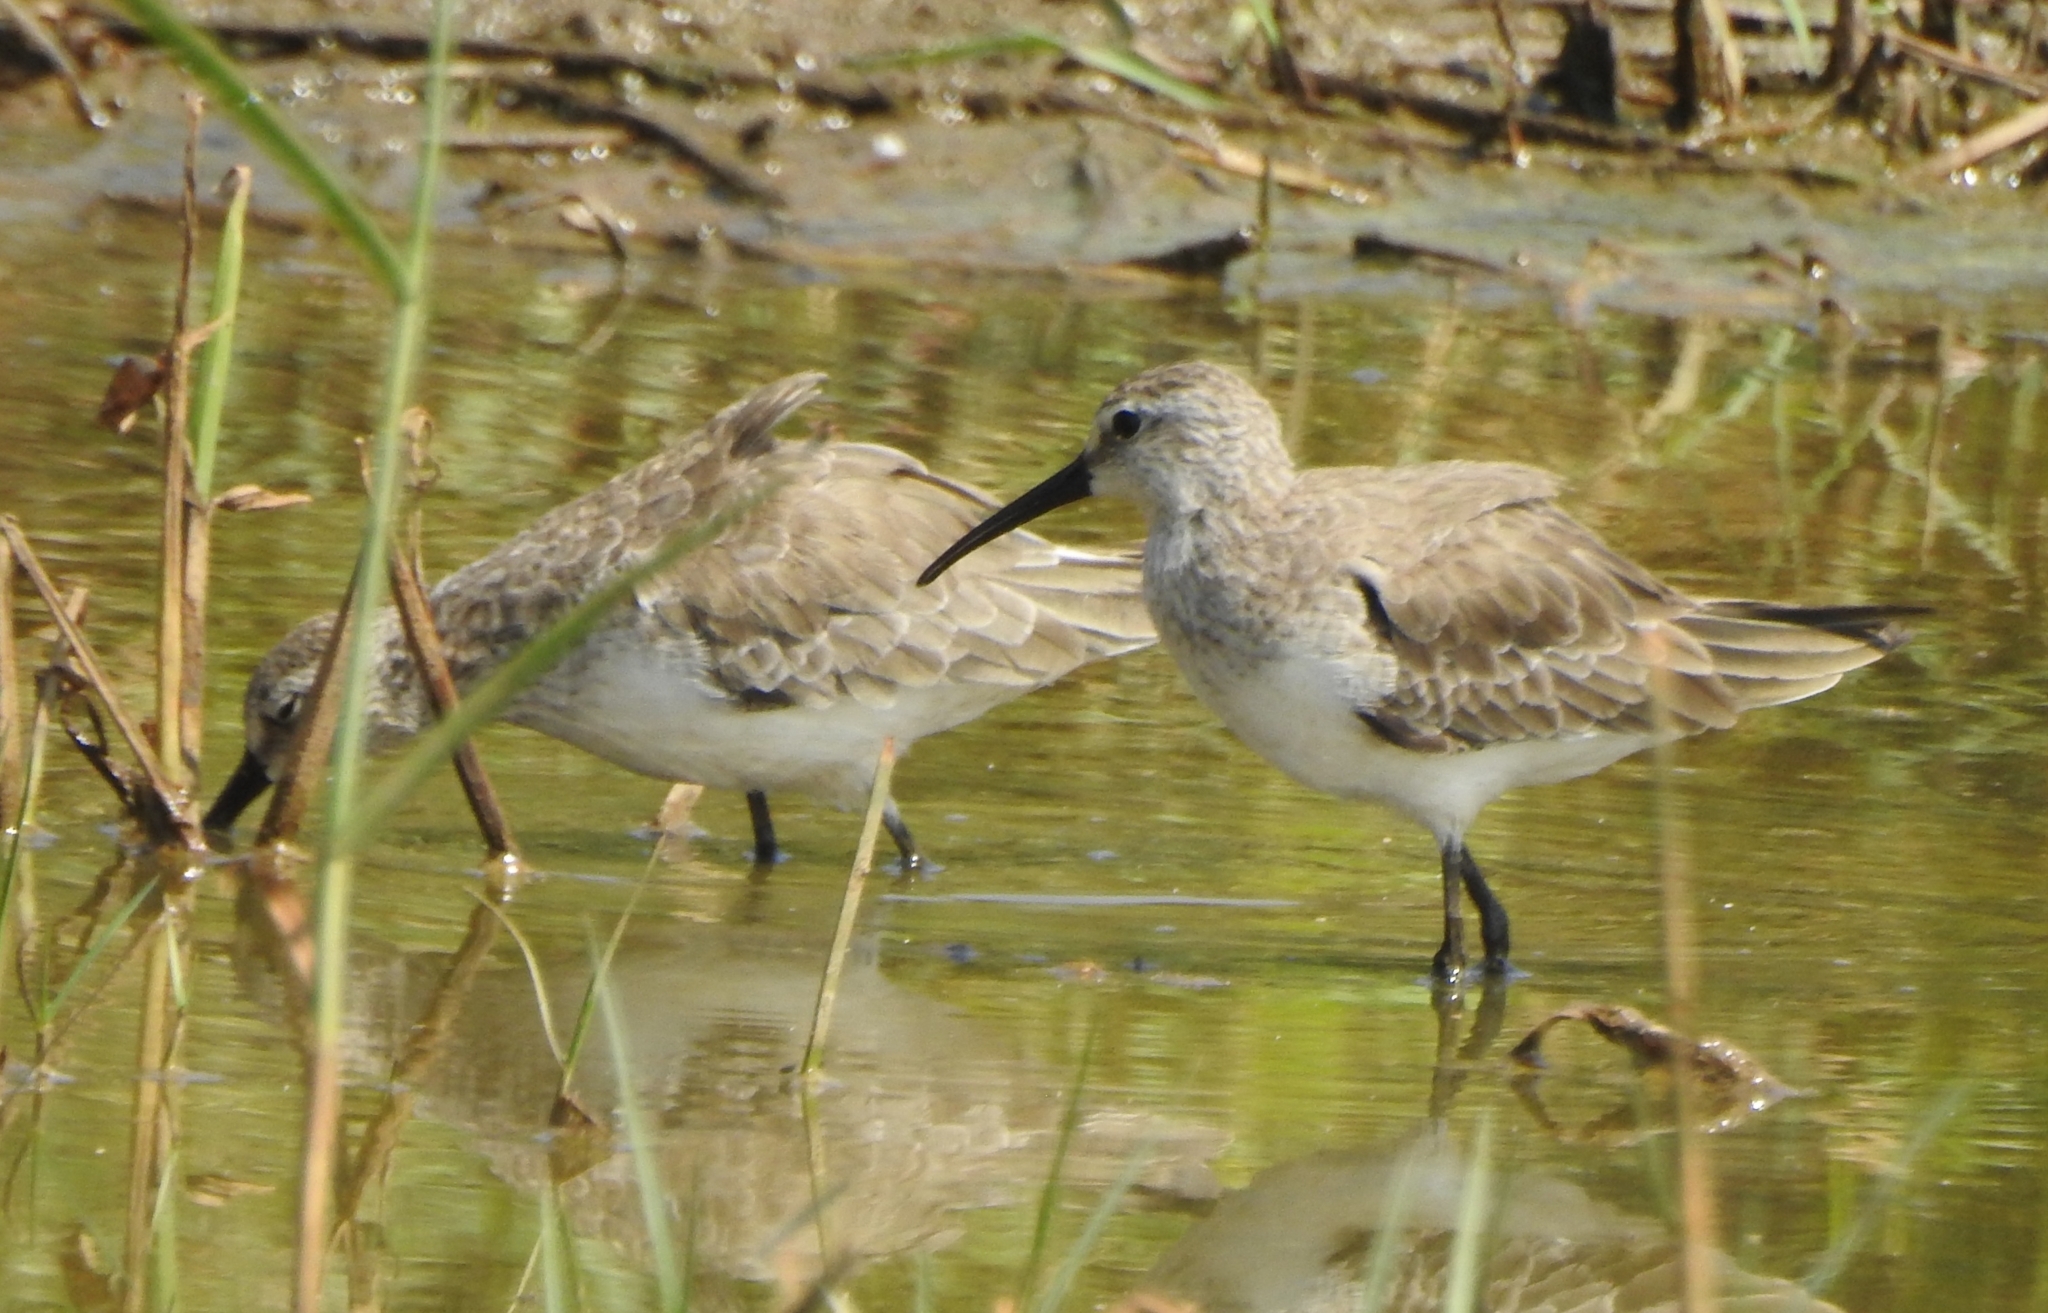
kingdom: Animalia
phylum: Chordata
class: Aves
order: Charadriiformes
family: Scolopacidae
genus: Calidris
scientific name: Calidris ferruginea
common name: Curlew sandpiper
